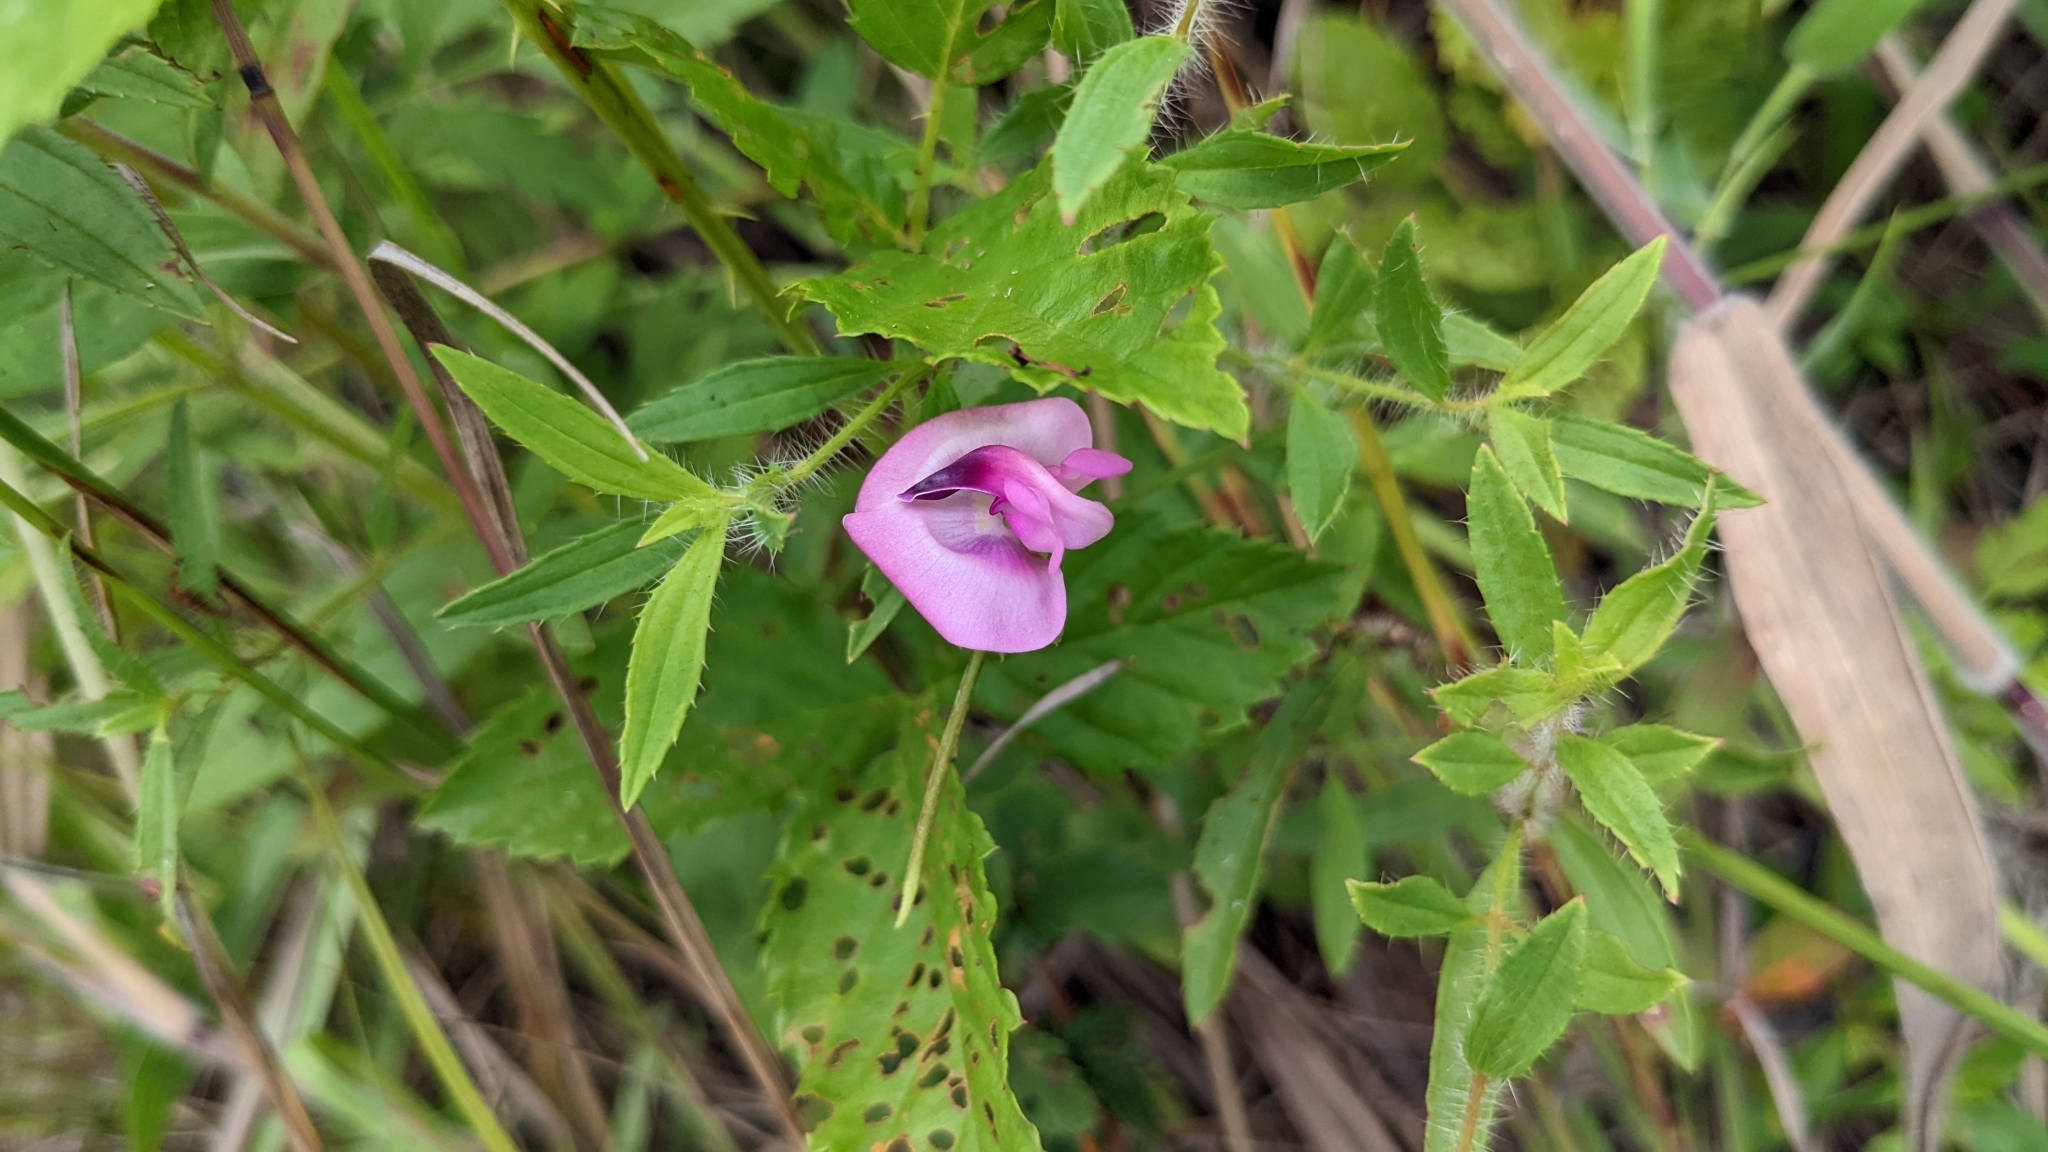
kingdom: Plantae
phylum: Tracheophyta
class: Magnoliopsida
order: Fabales
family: Fabaceae
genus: Strophostyles
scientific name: Strophostyles umbellata
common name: Perennial wild bean
